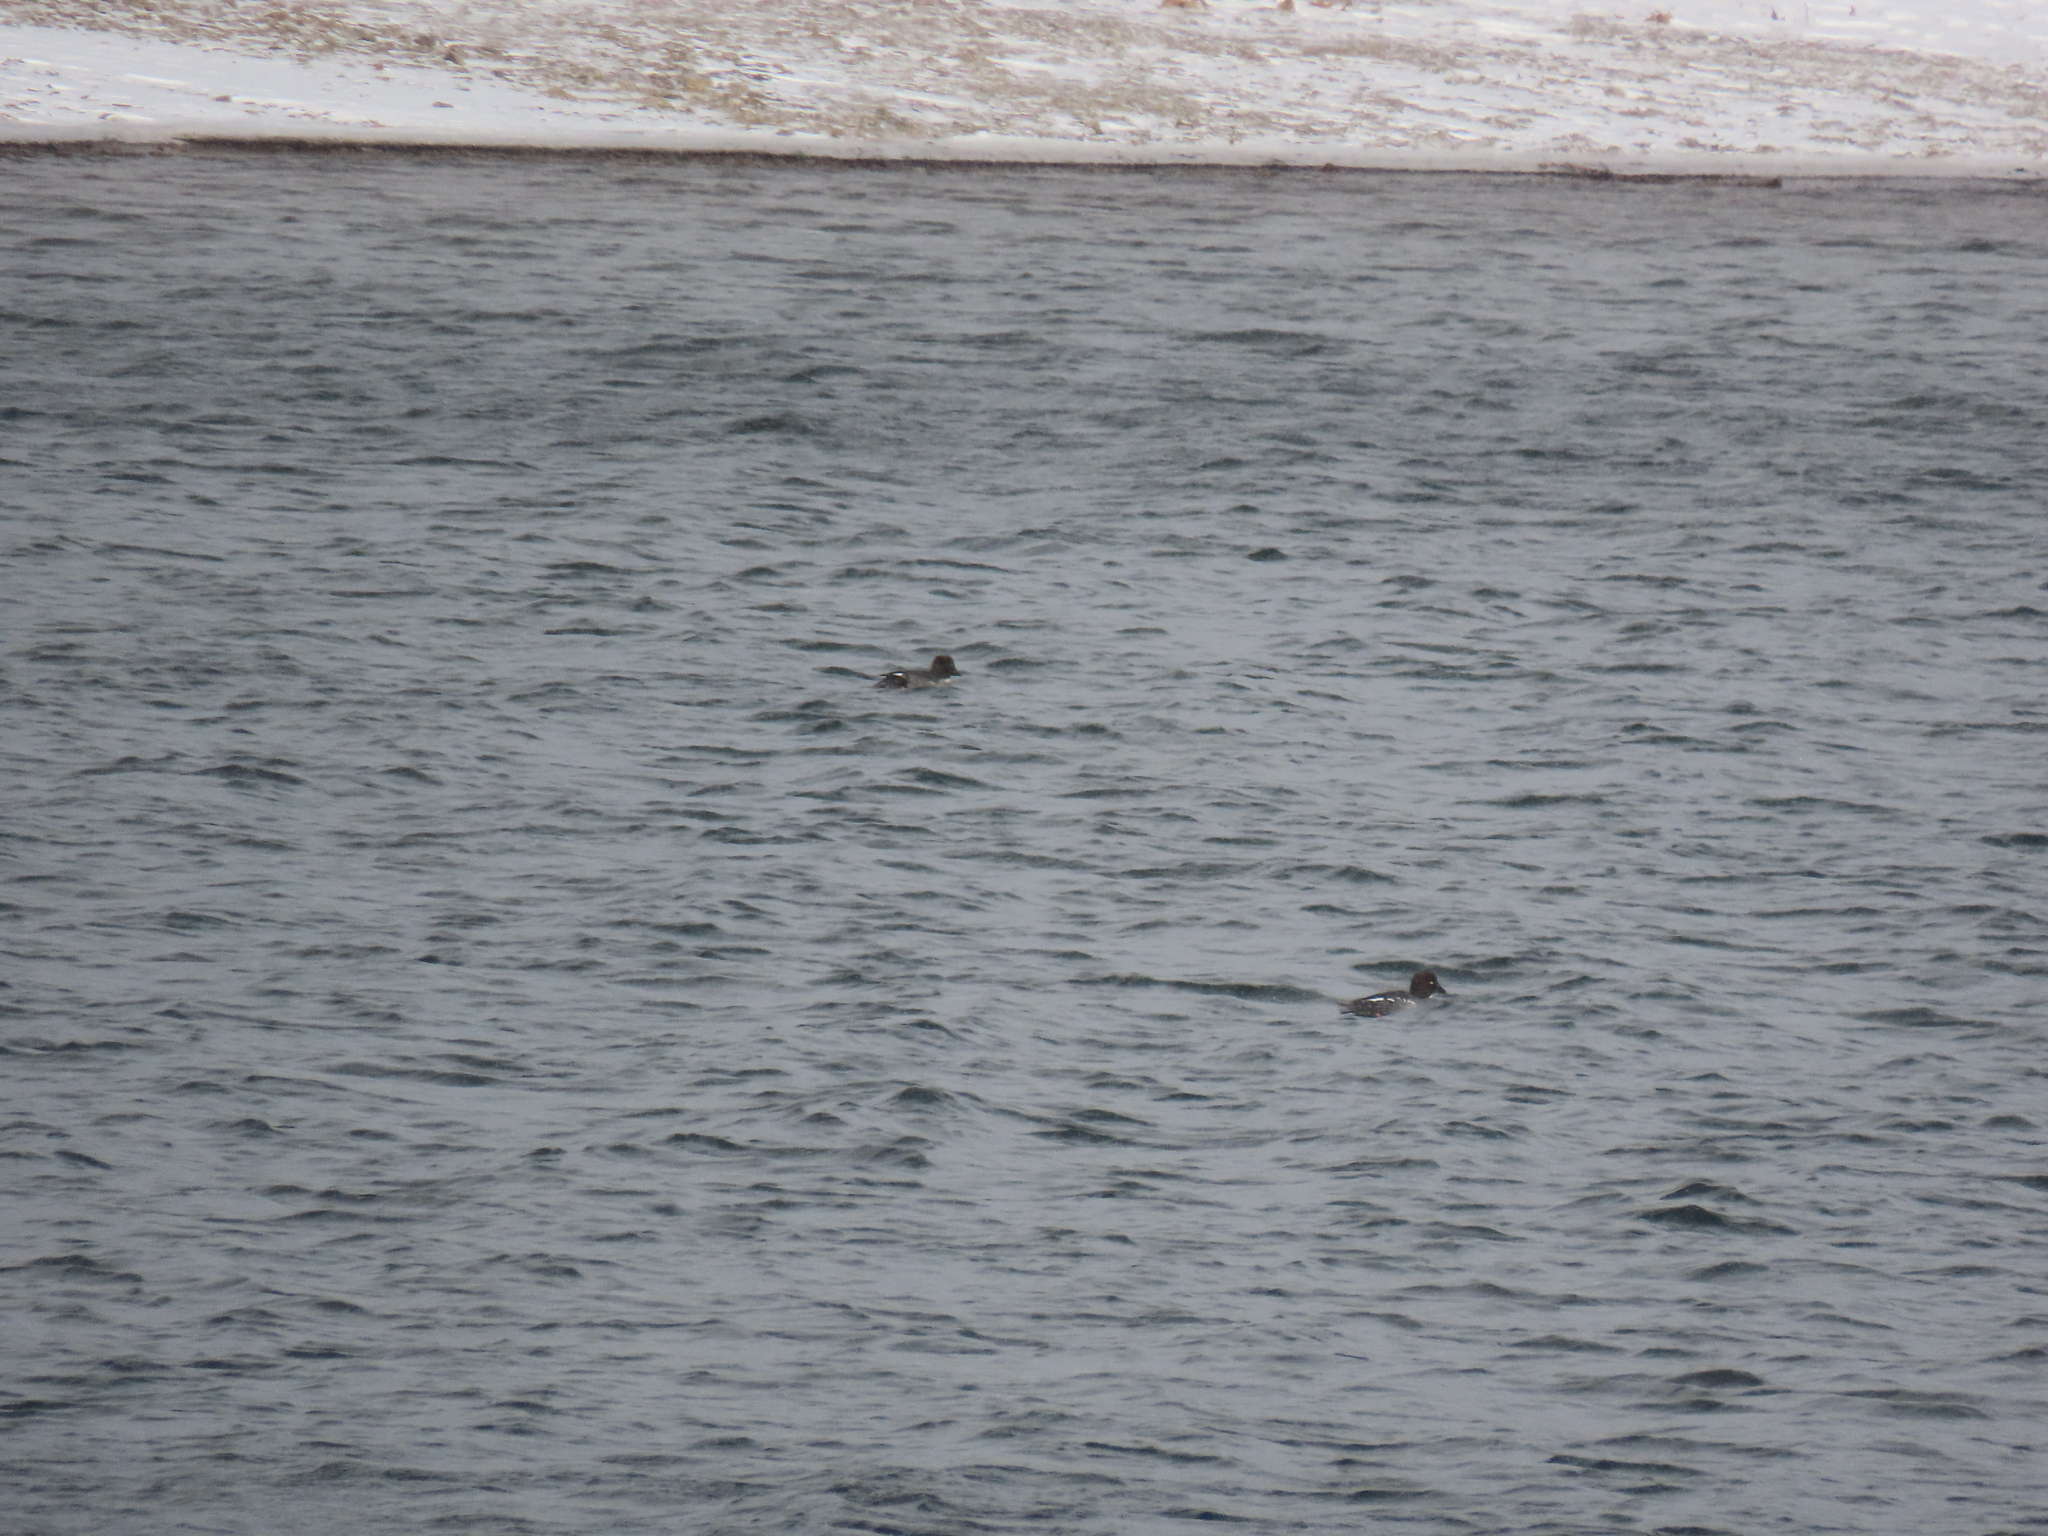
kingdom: Animalia
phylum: Chordata
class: Aves
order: Anseriformes
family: Anatidae
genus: Bucephala
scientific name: Bucephala clangula
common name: Common goldeneye
